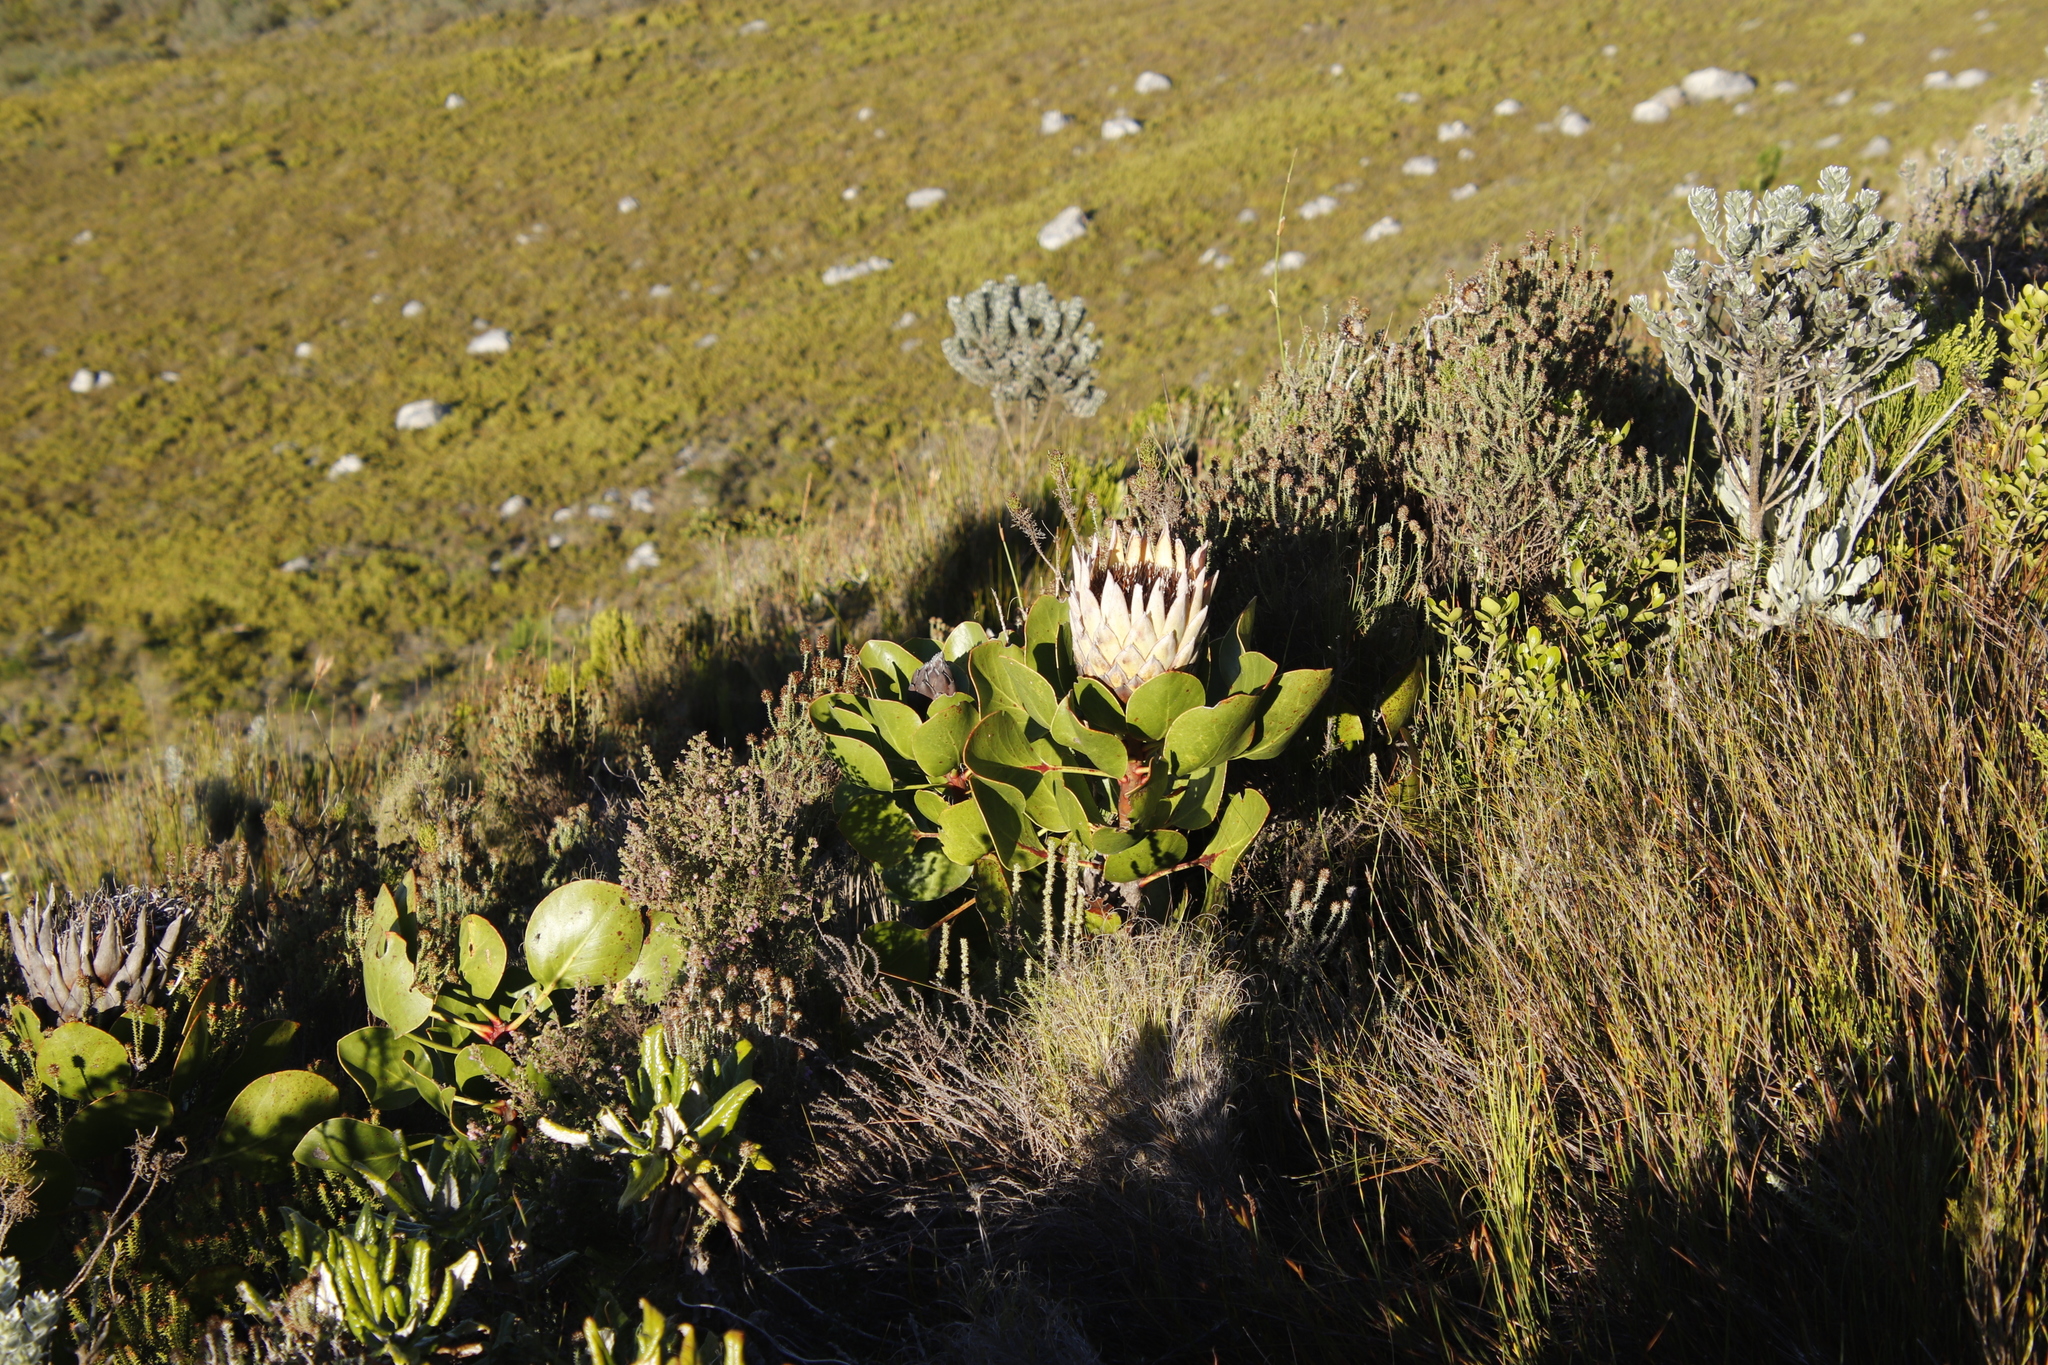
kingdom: Plantae
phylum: Tracheophyta
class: Magnoliopsida
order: Proteales
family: Proteaceae
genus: Protea
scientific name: Protea cynaroides
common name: King protea
